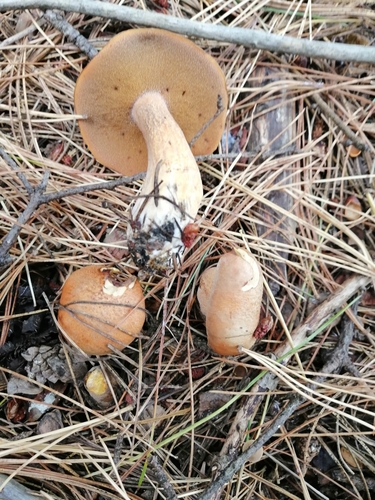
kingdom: Fungi
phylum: Basidiomycota
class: Agaricomycetes
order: Boletales
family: Suillaceae
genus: Suillus
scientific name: Suillus variegatus
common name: Velvet bolete
